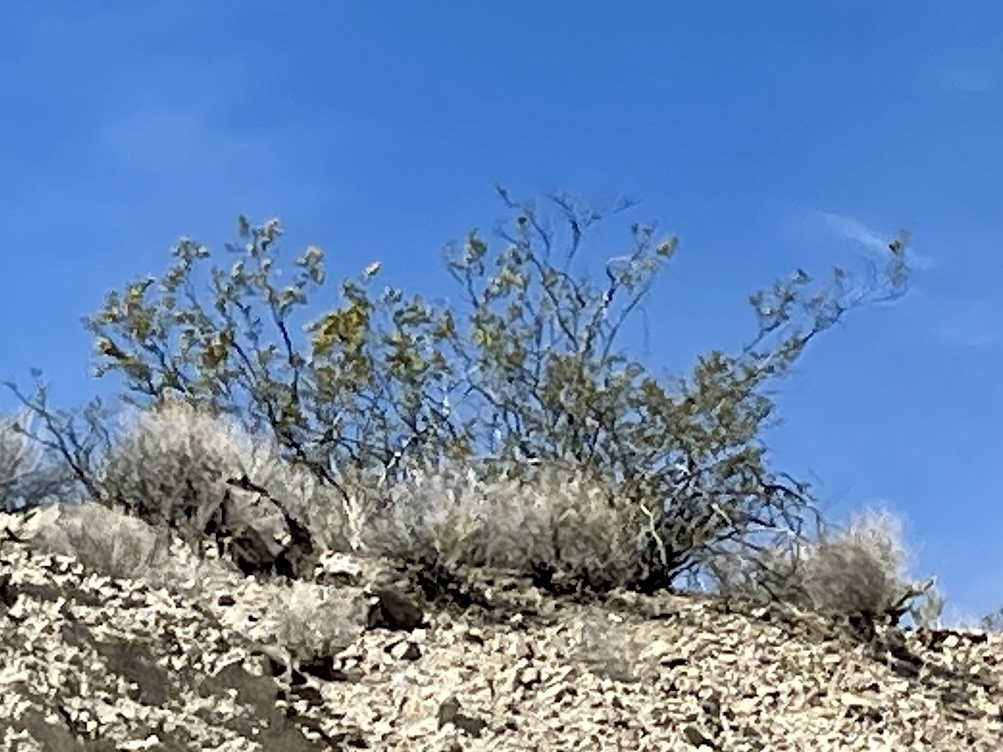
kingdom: Plantae
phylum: Tracheophyta
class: Magnoliopsida
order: Zygophyllales
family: Zygophyllaceae
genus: Larrea
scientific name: Larrea tridentata
